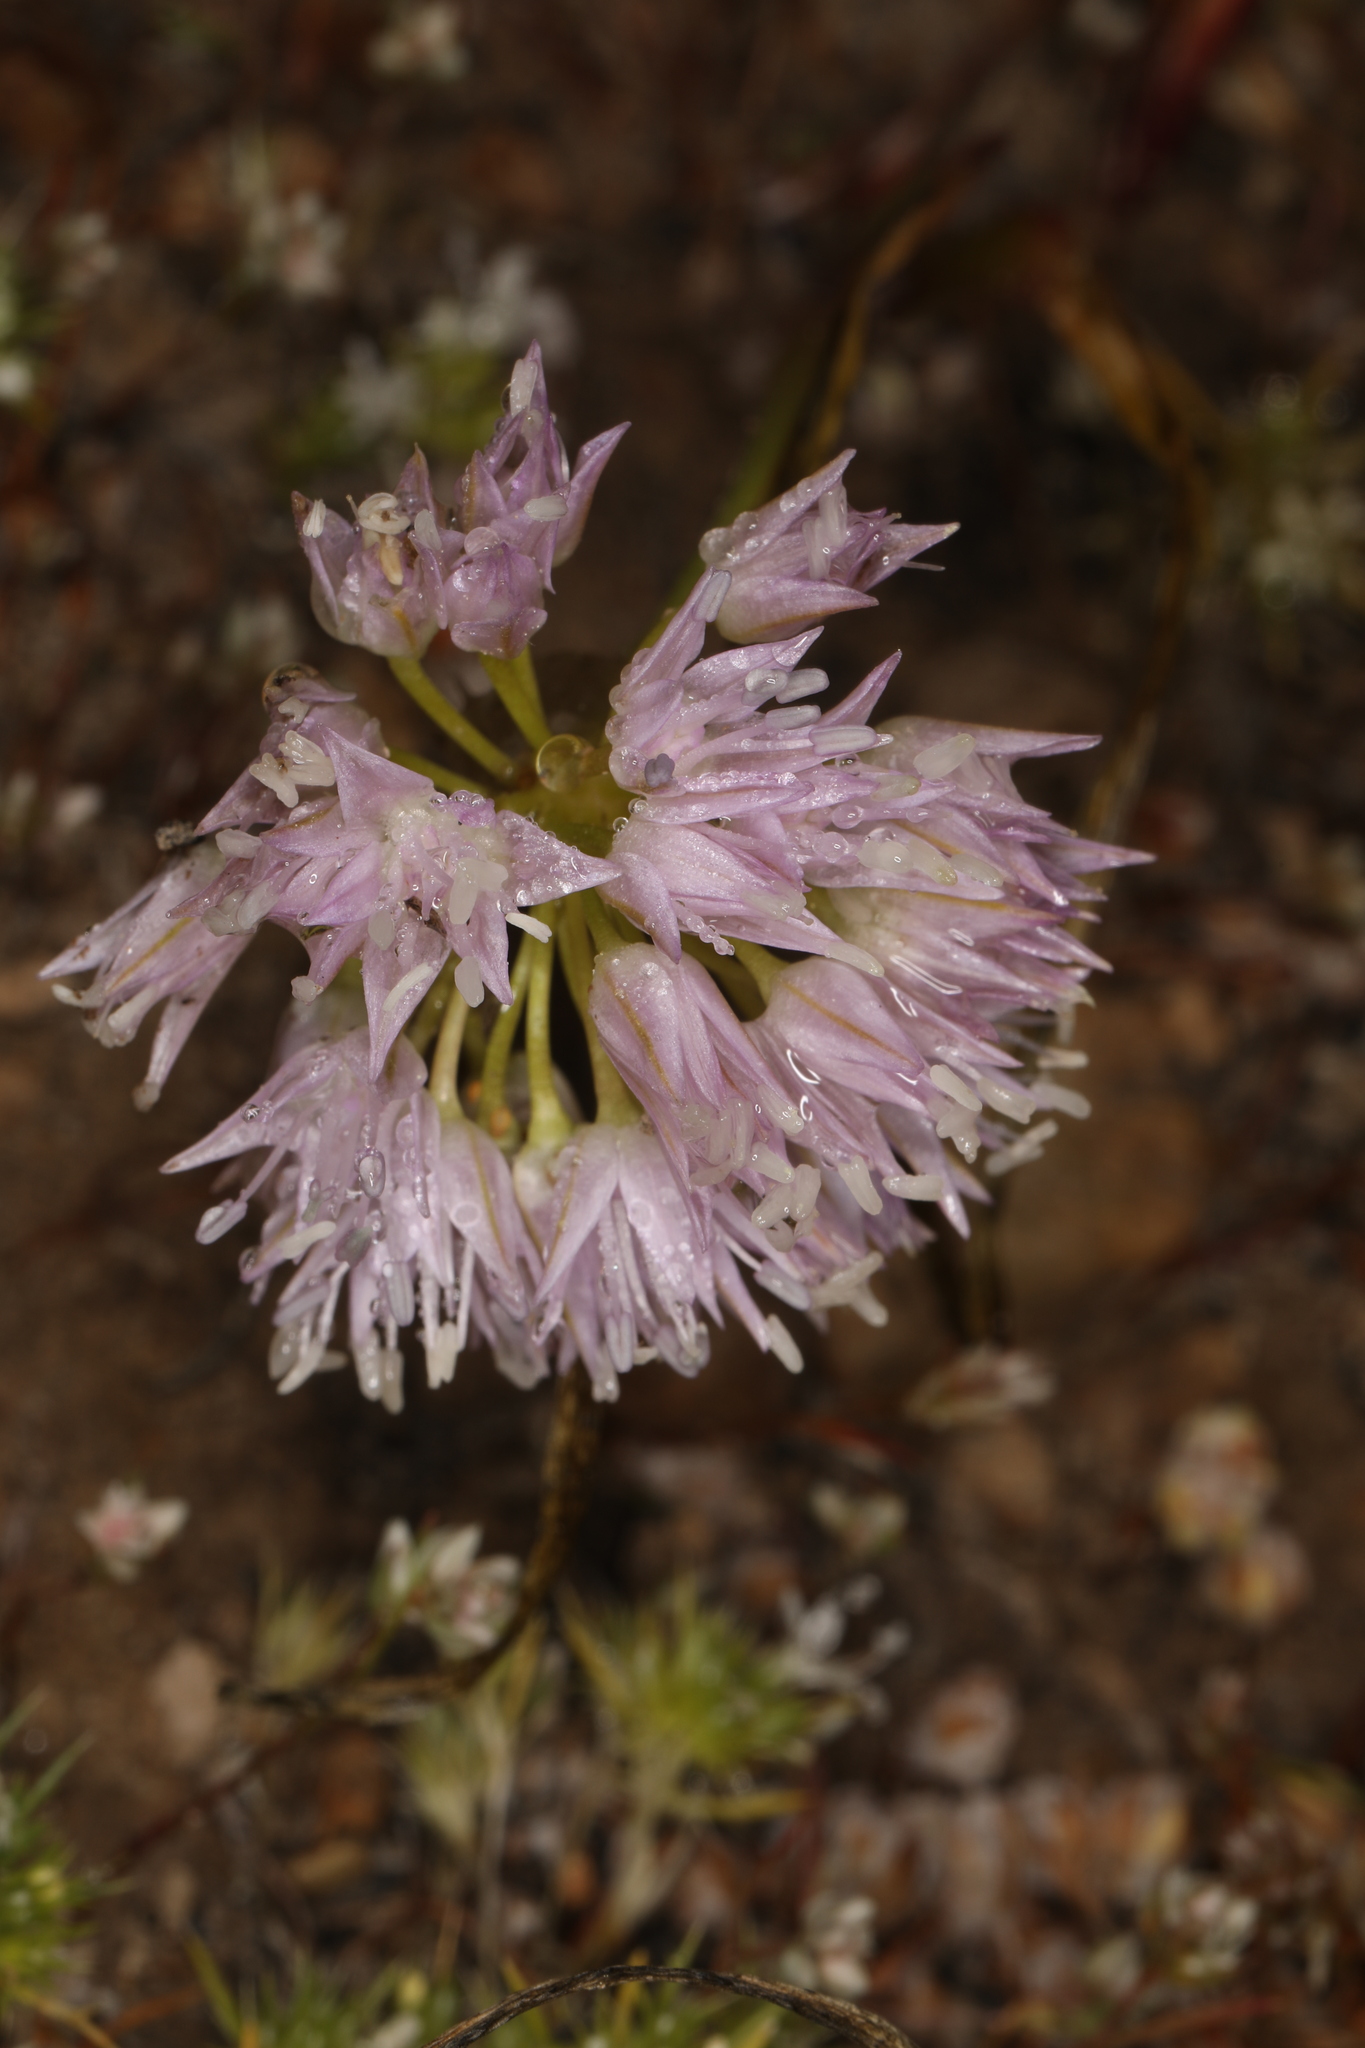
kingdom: Plantae
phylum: Tracheophyta
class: Liliopsida
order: Asparagales
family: Amaryllidaceae
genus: Allium
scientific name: Allium lemmonii
